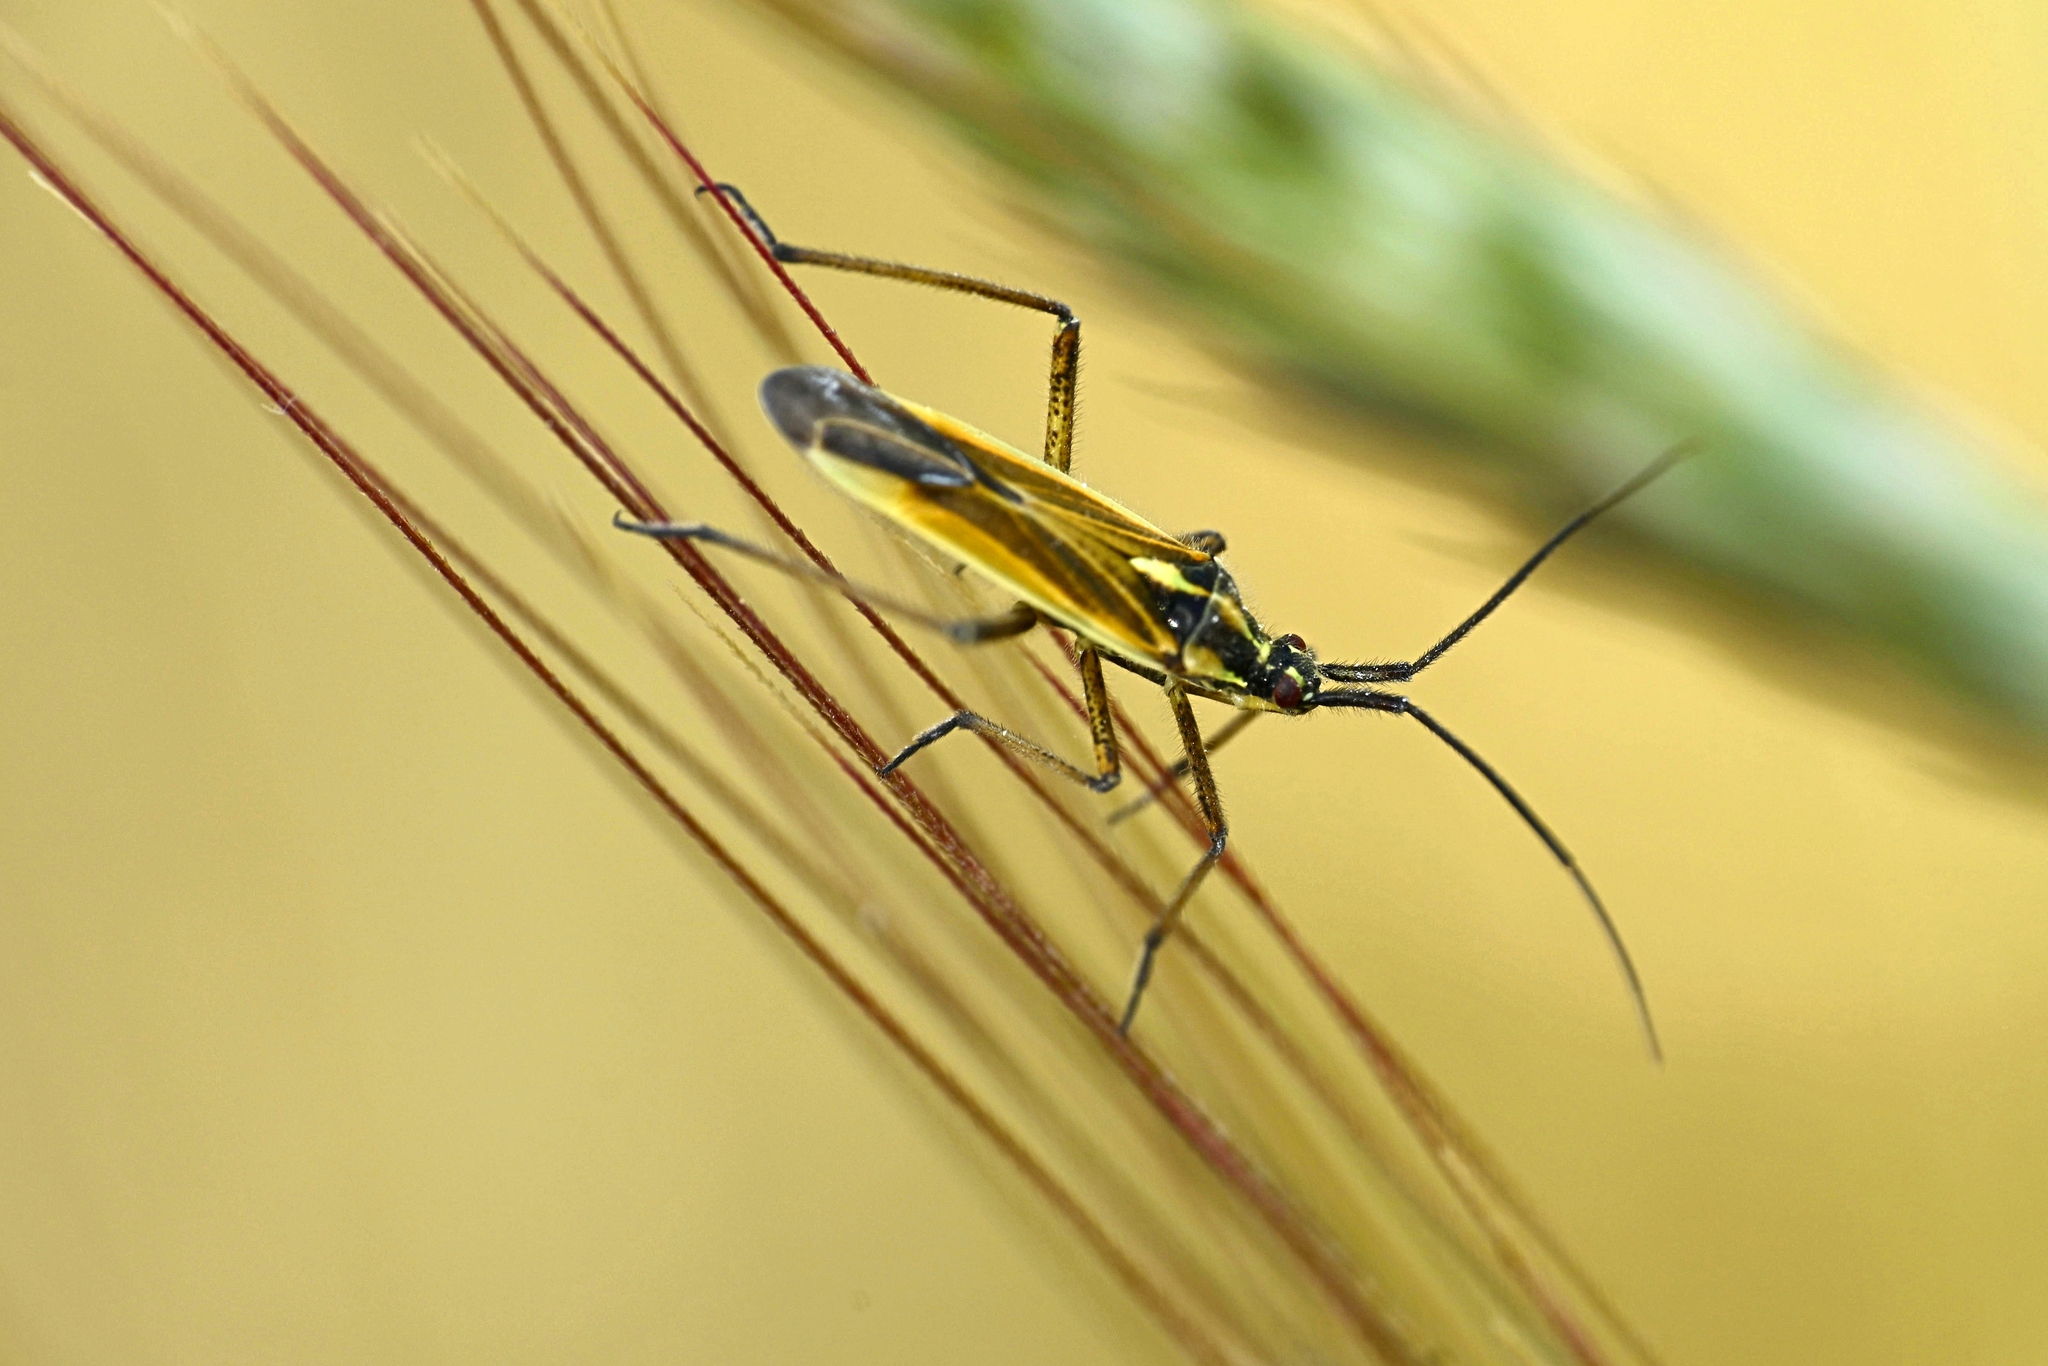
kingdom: Animalia
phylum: Arthropoda
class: Insecta
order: Hemiptera
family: Miridae
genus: Leptopterna
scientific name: Leptopterna dolabrata
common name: Meadow plant bug
